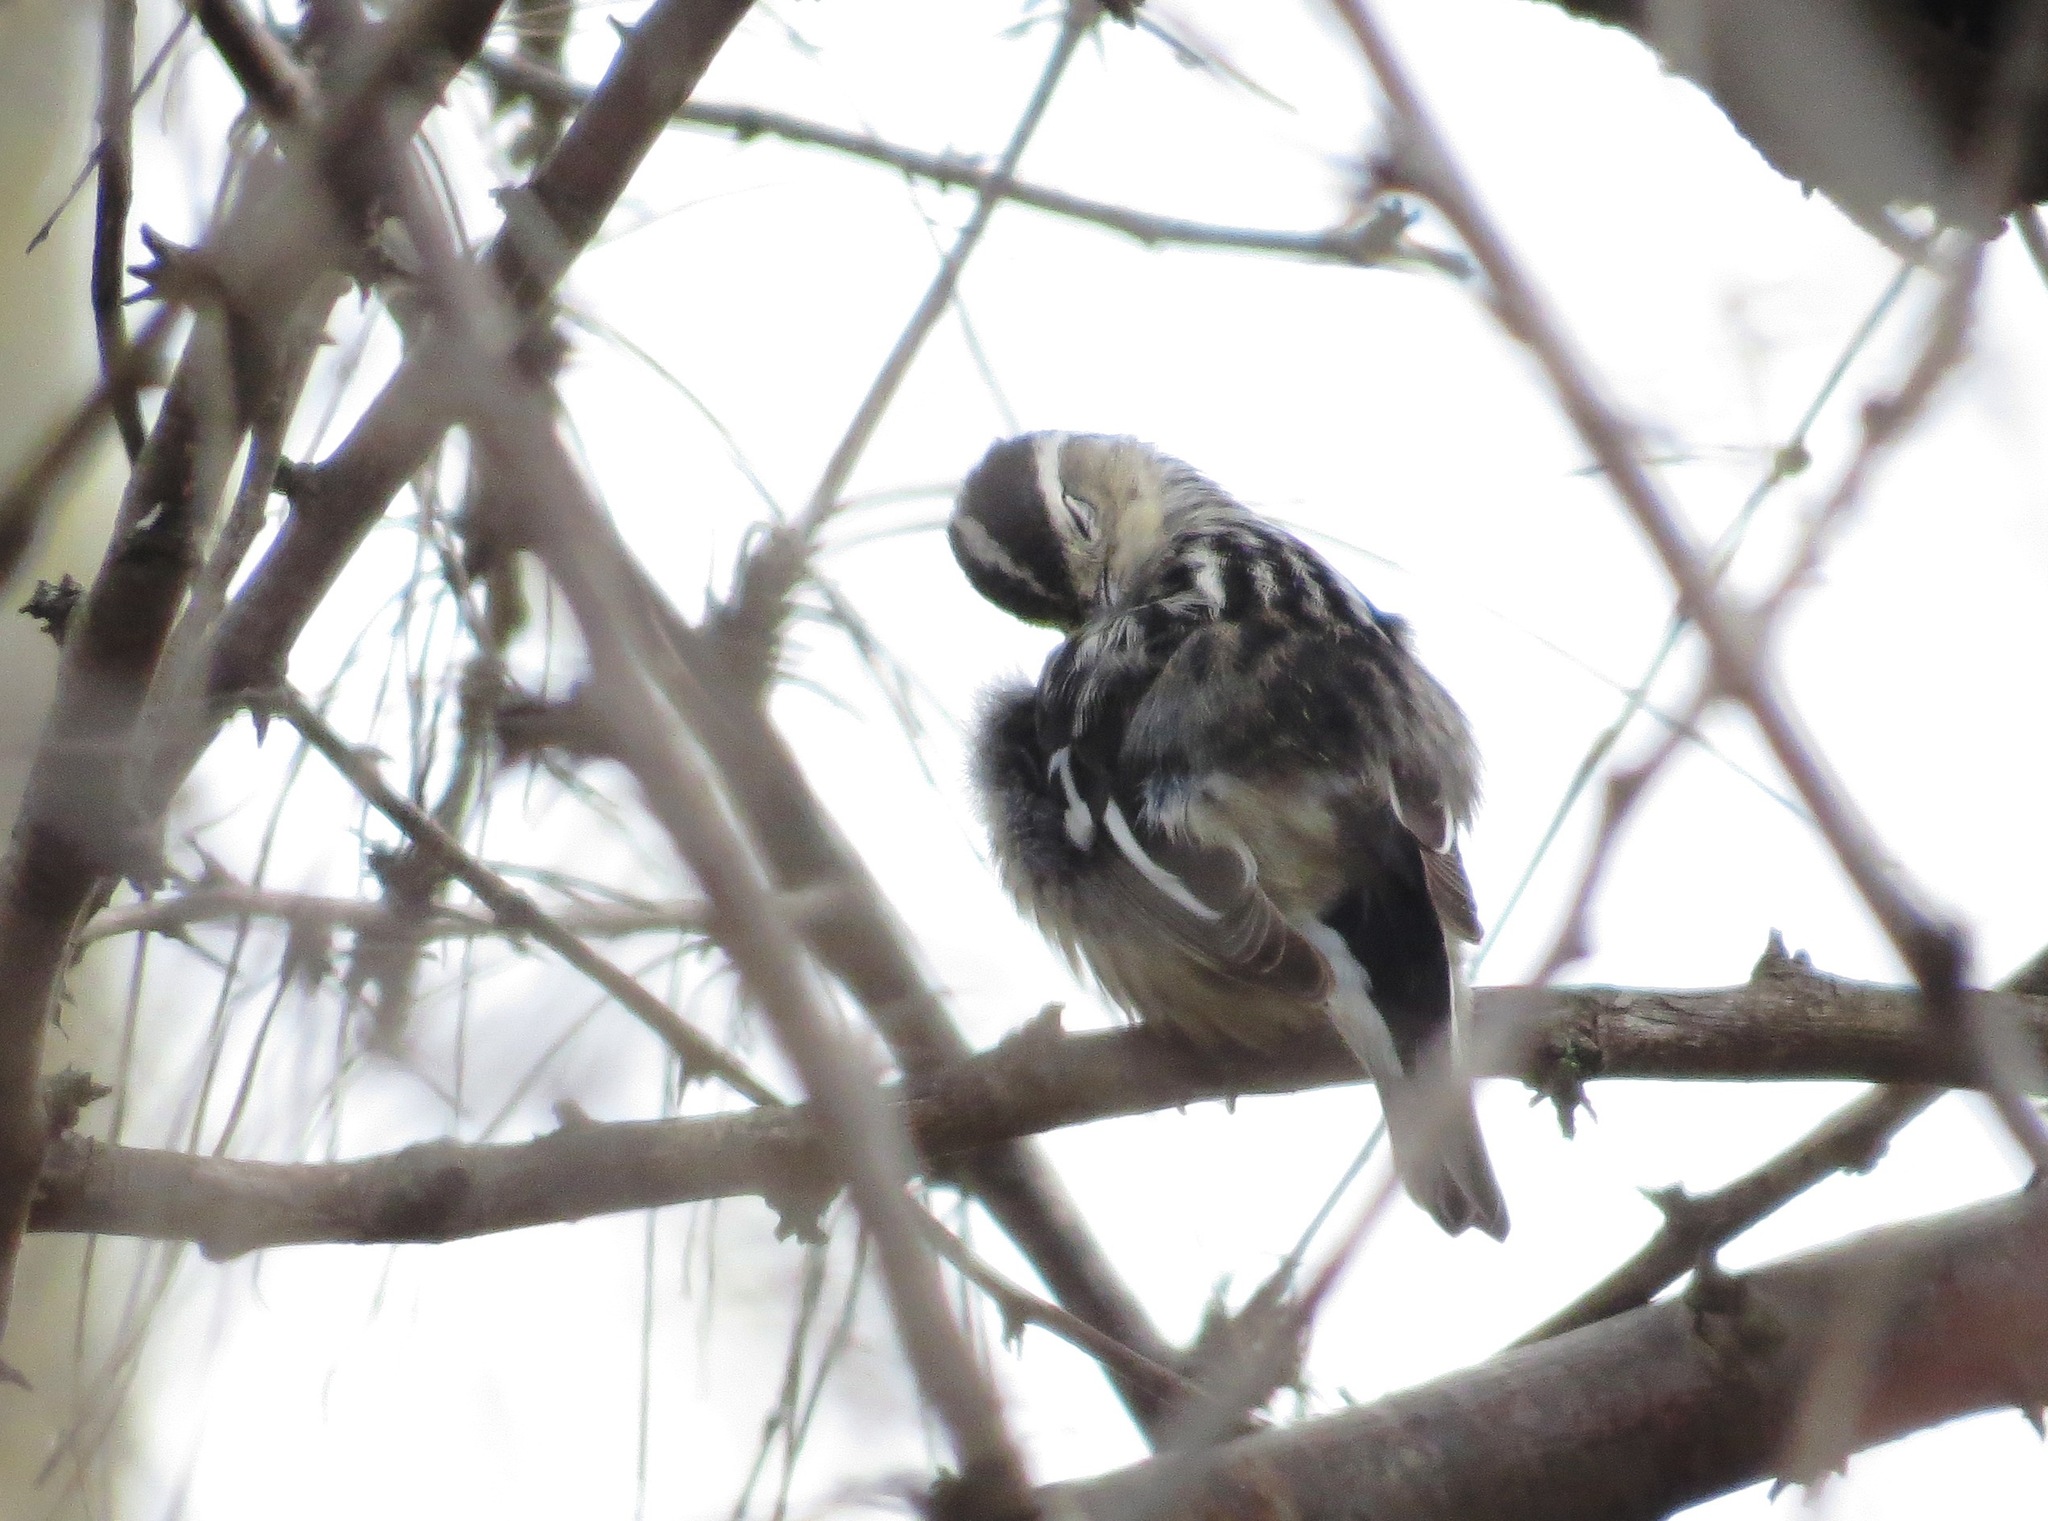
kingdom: Animalia
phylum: Chordata
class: Aves
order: Passeriformes
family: Parulidae
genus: Mniotilta
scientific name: Mniotilta varia
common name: Black-and-white warbler
